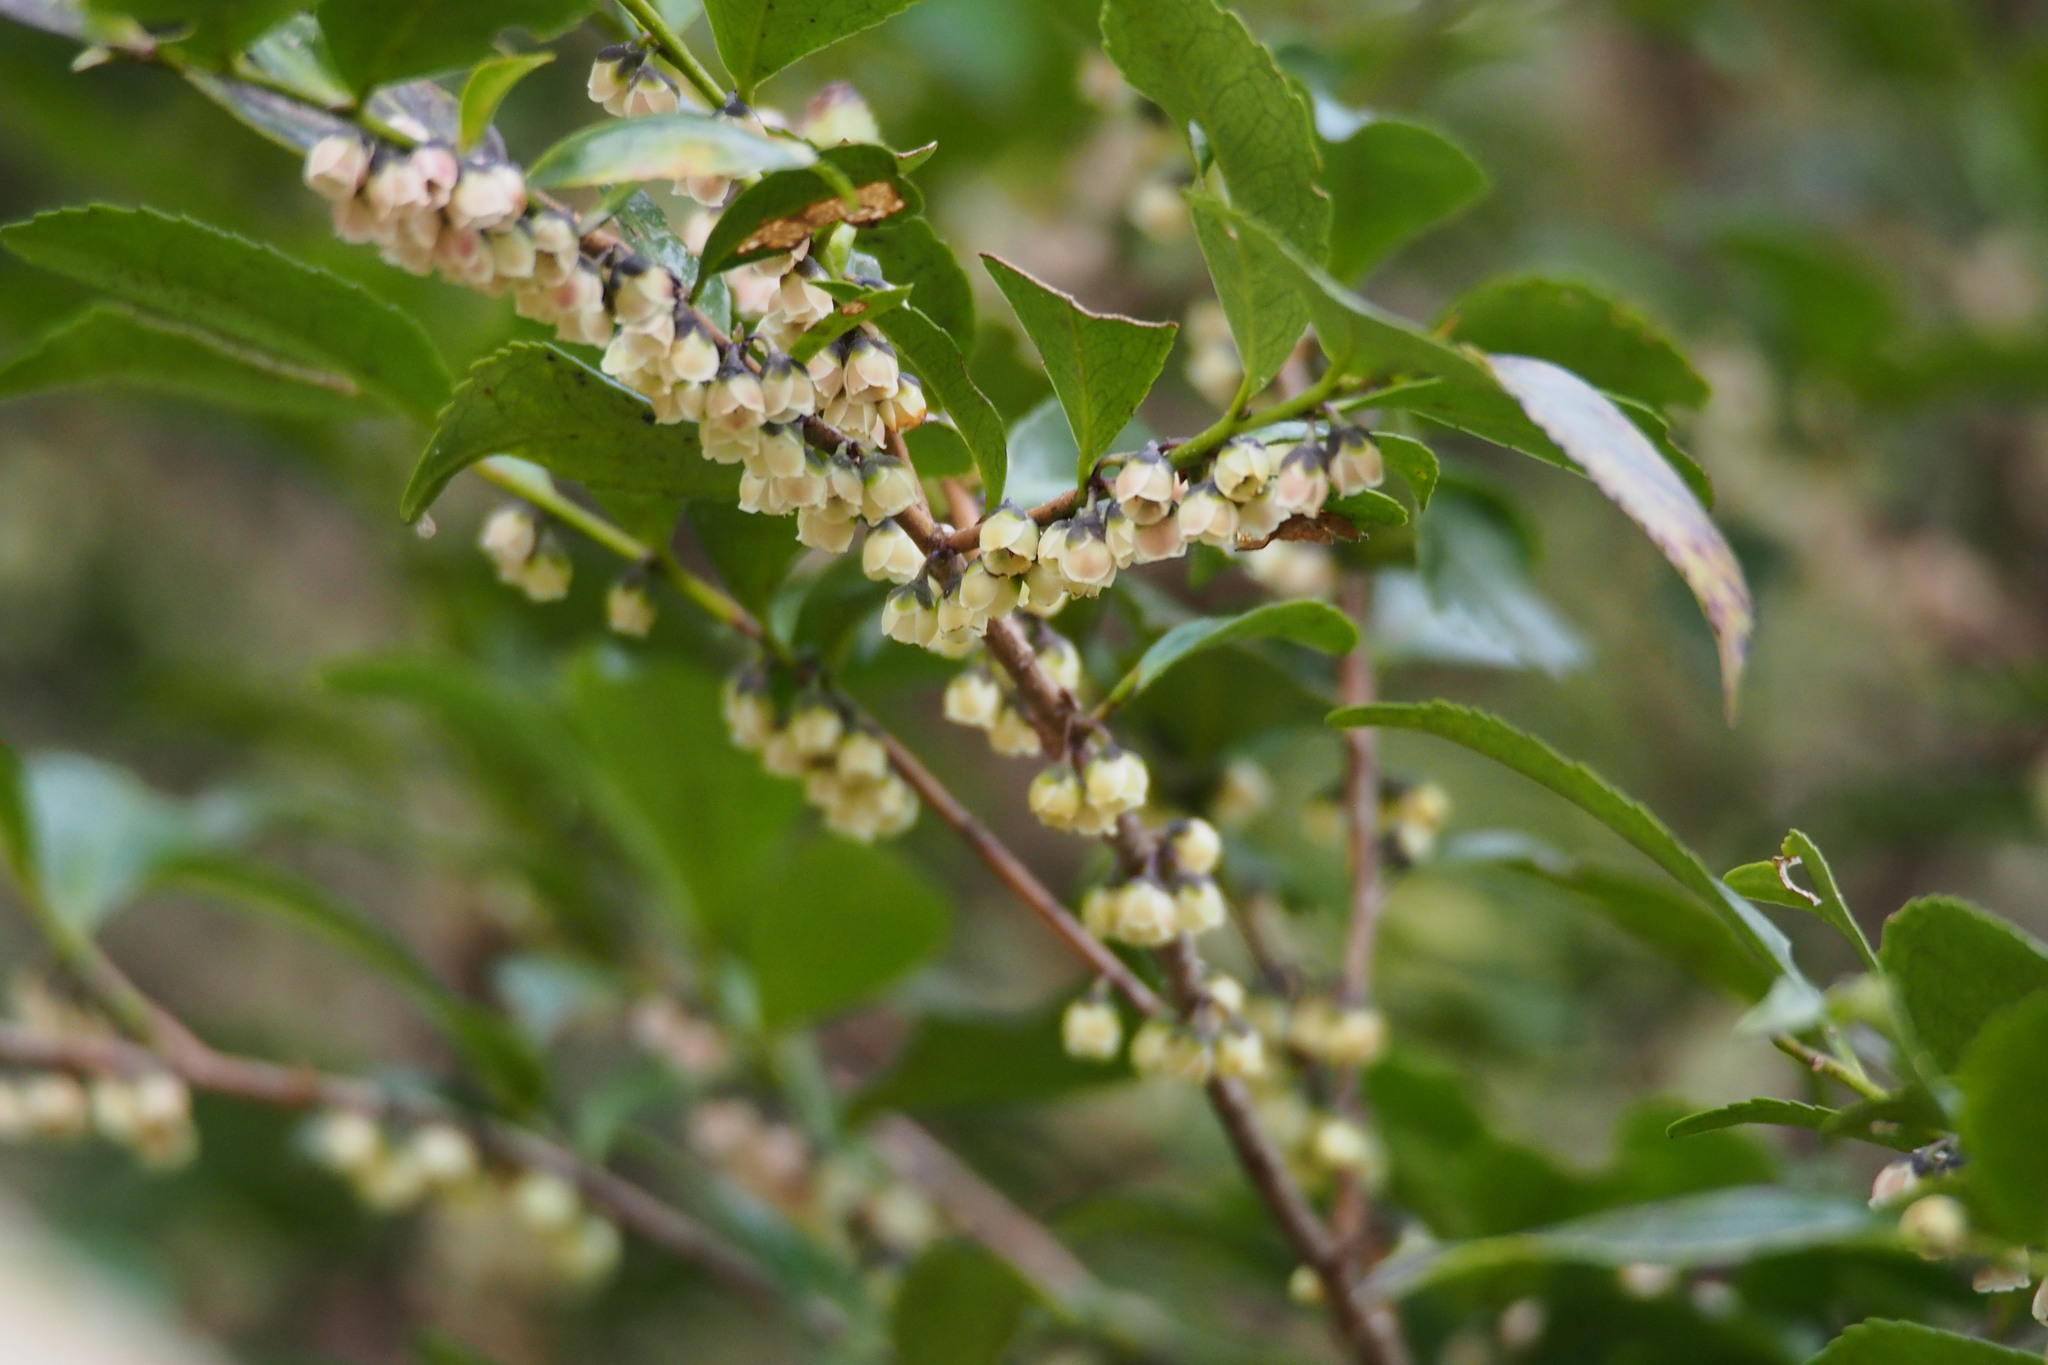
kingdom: Plantae
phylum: Tracheophyta
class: Magnoliopsida
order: Ericales
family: Pentaphylacaceae
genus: Eurya
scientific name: Eurya japonica
